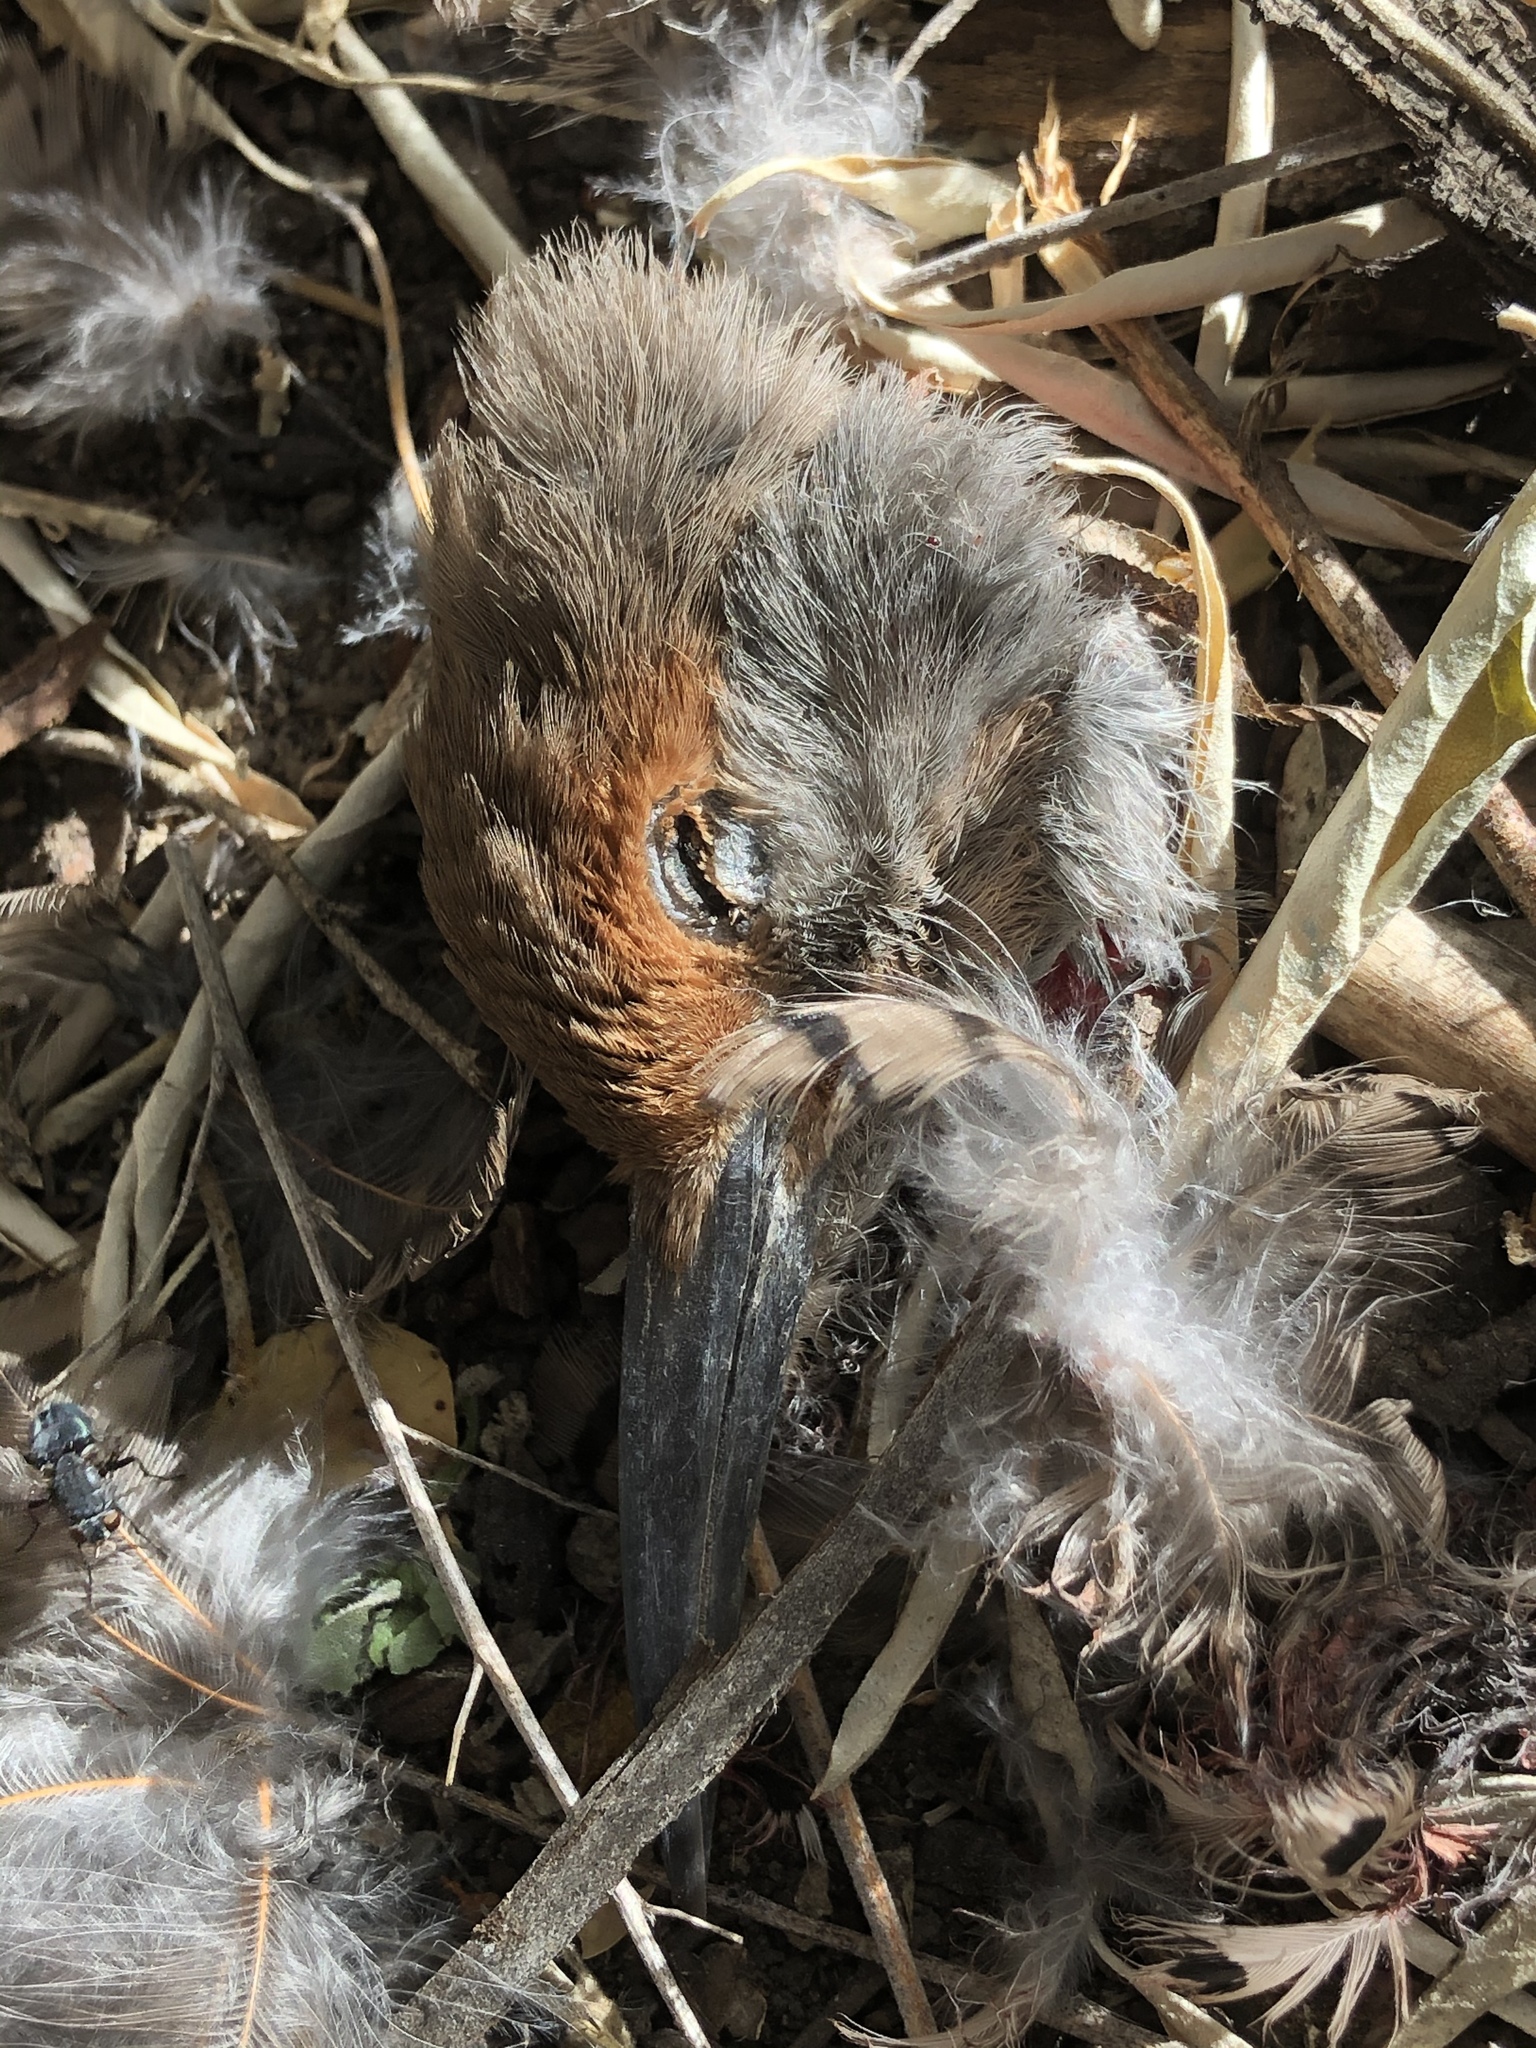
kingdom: Animalia
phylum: Chordata
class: Aves
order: Piciformes
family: Picidae
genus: Colaptes
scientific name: Colaptes auratus
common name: Northern flicker
